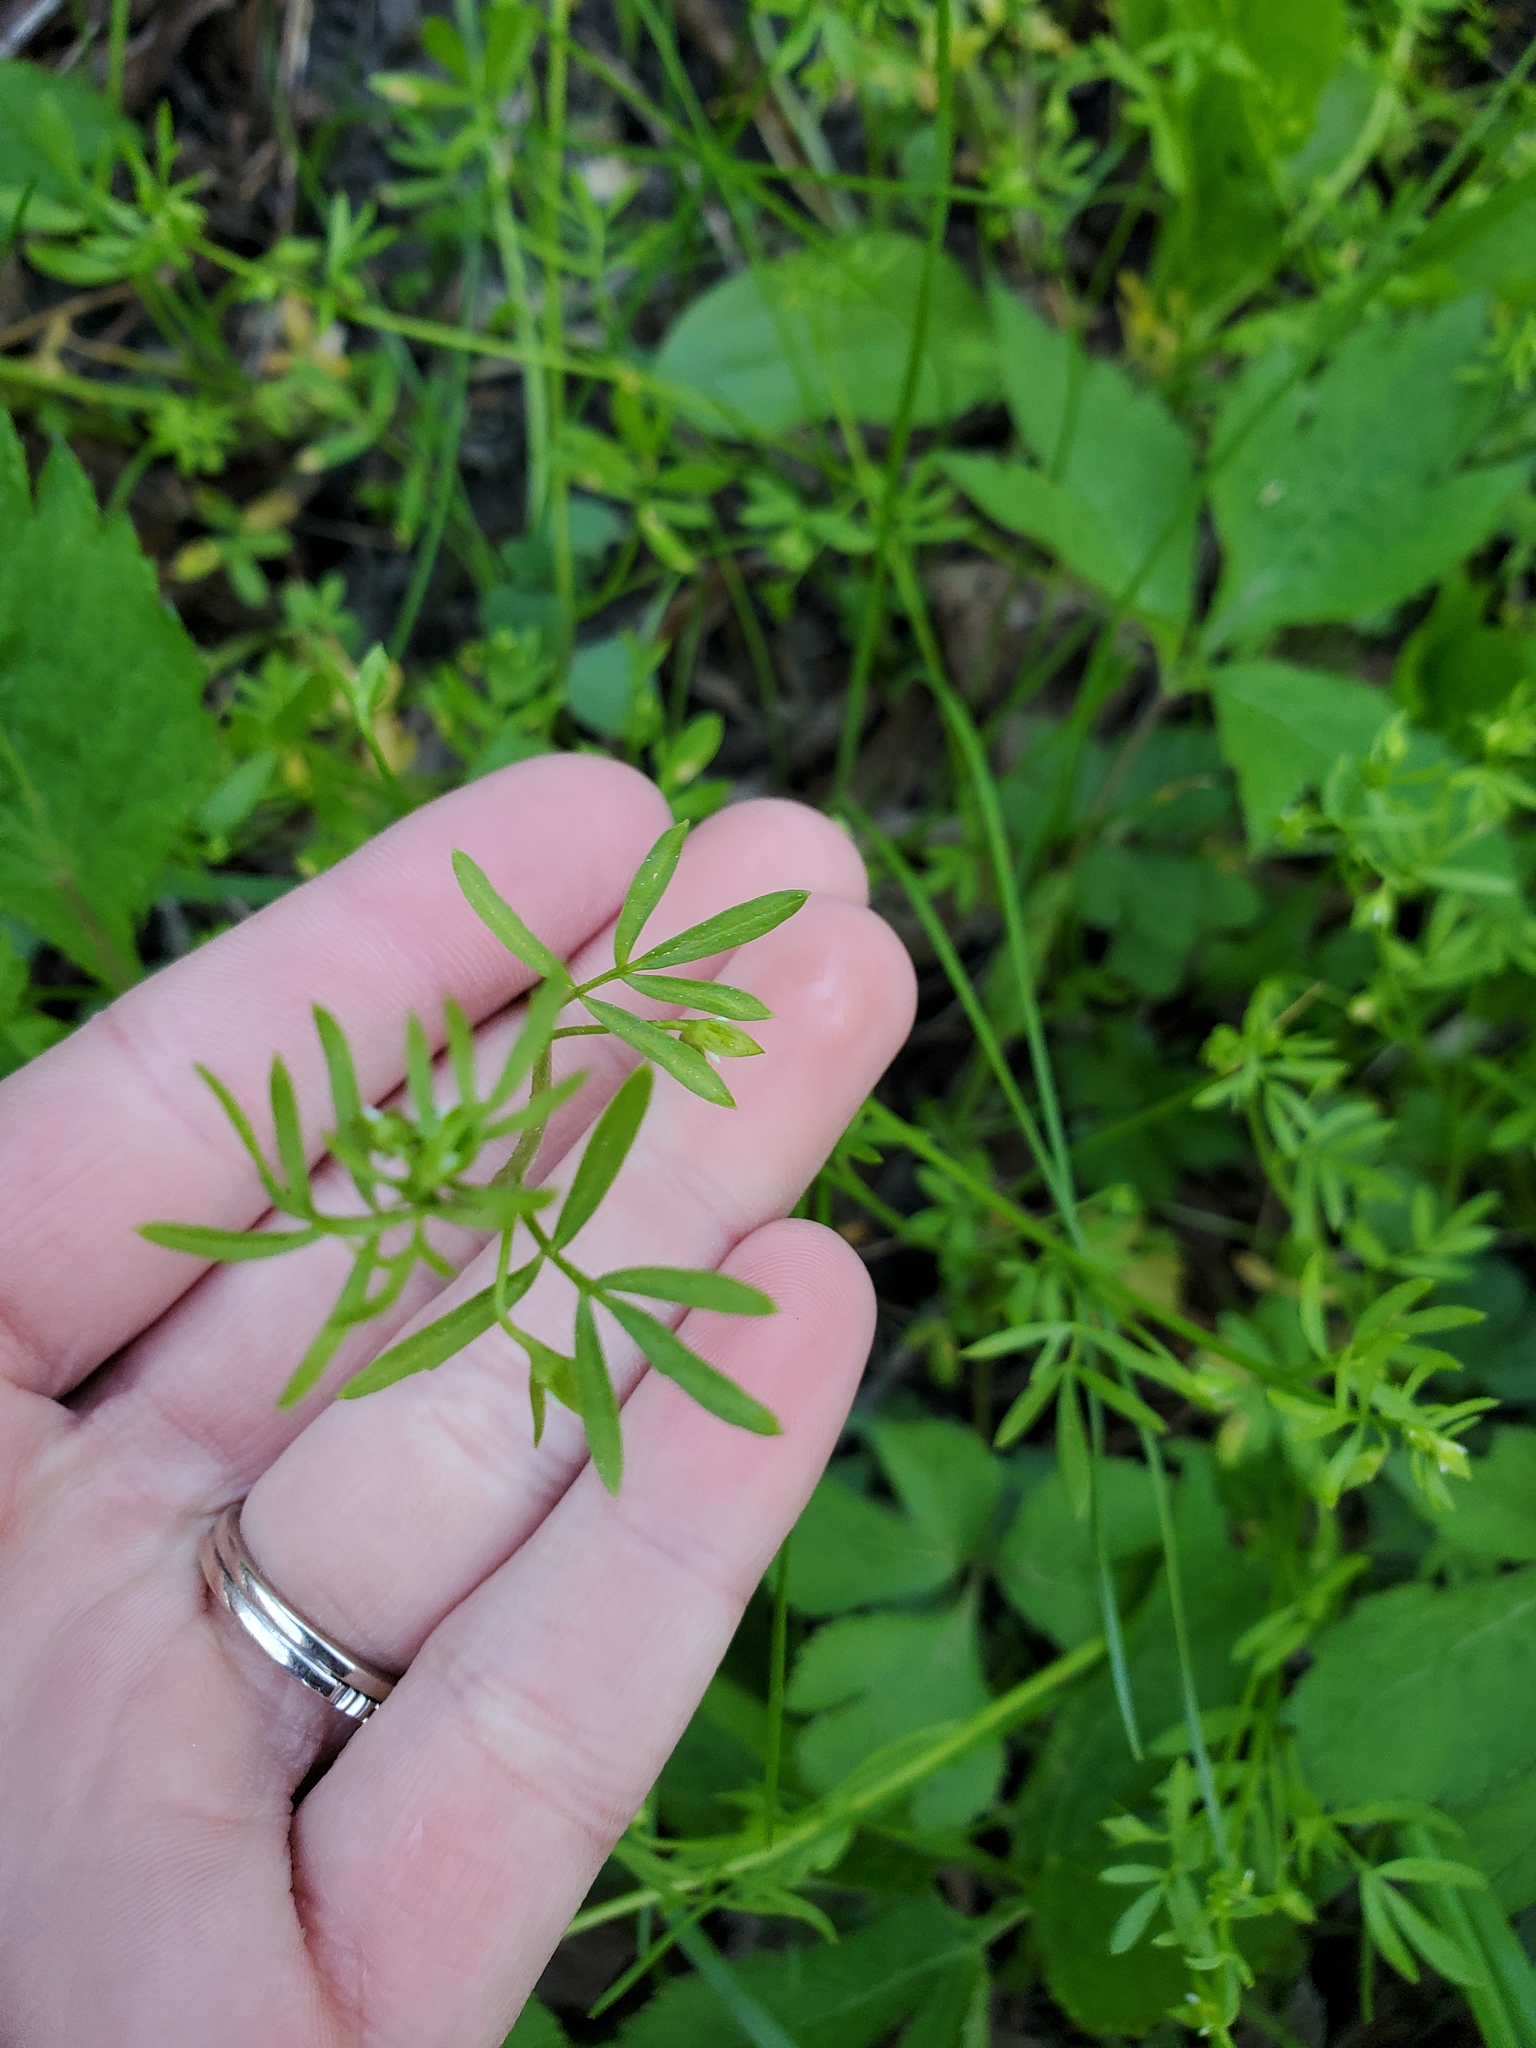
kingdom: Plantae
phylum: Tracheophyta
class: Magnoliopsida
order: Brassicales
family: Limnanthaceae
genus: Floerkea
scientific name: Floerkea proserpinacoides
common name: False mermaid
